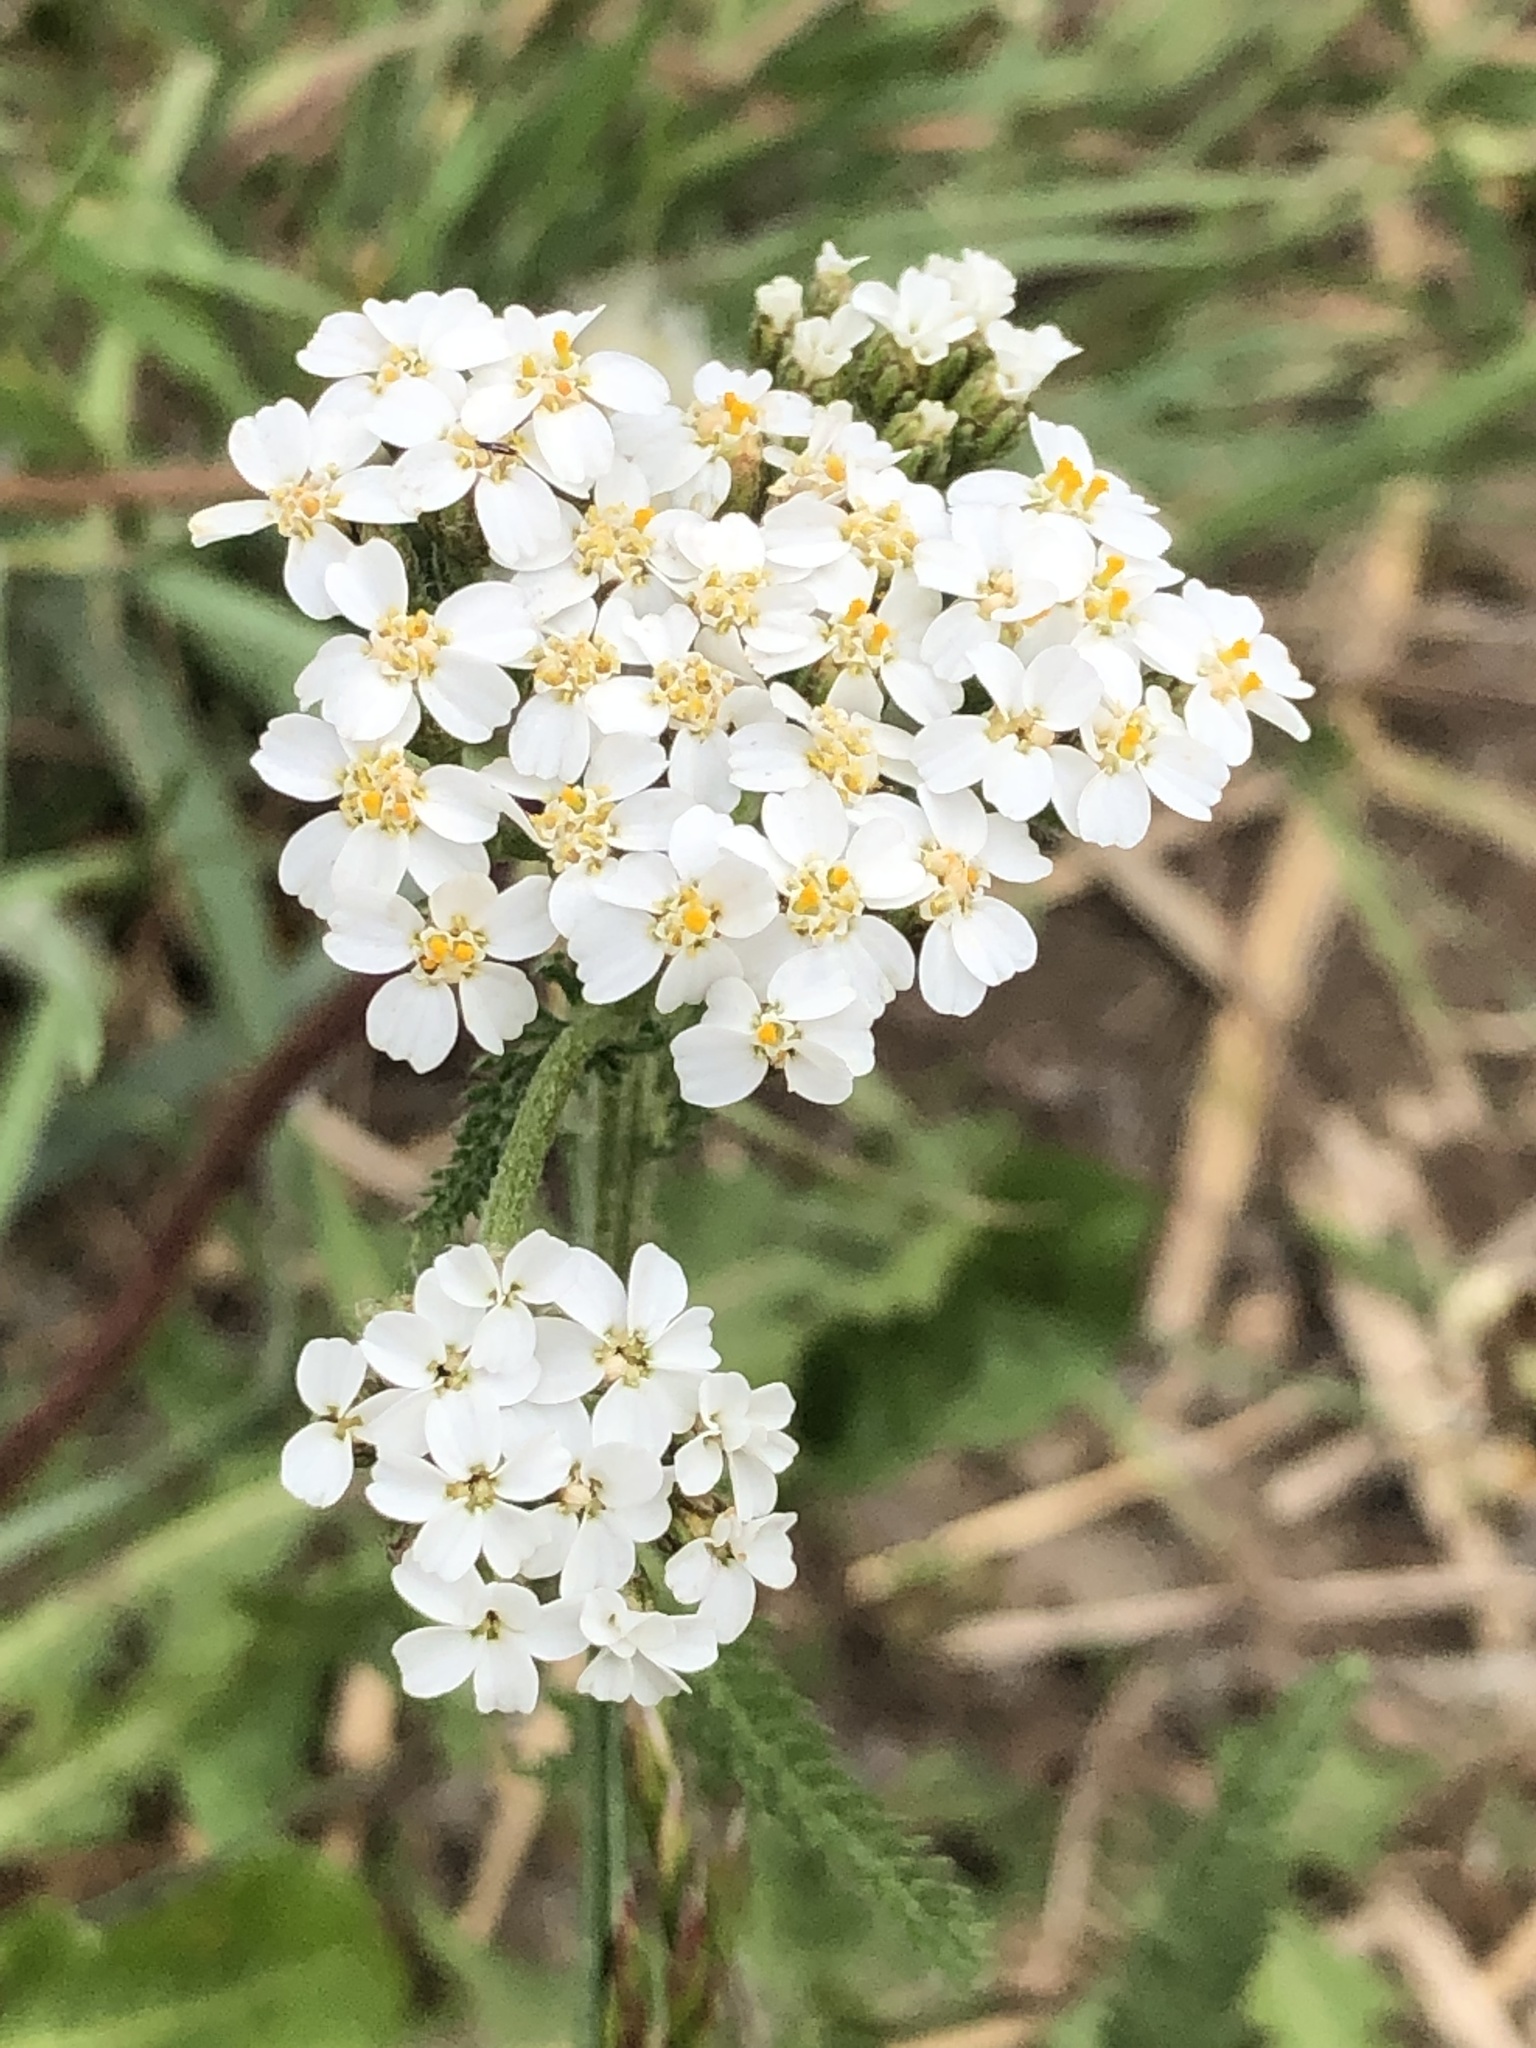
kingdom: Plantae
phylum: Tracheophyta
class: Magnoliopsida
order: Asterales
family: Asteraceae
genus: Achillea
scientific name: Achillea millefolium
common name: Yarrow
